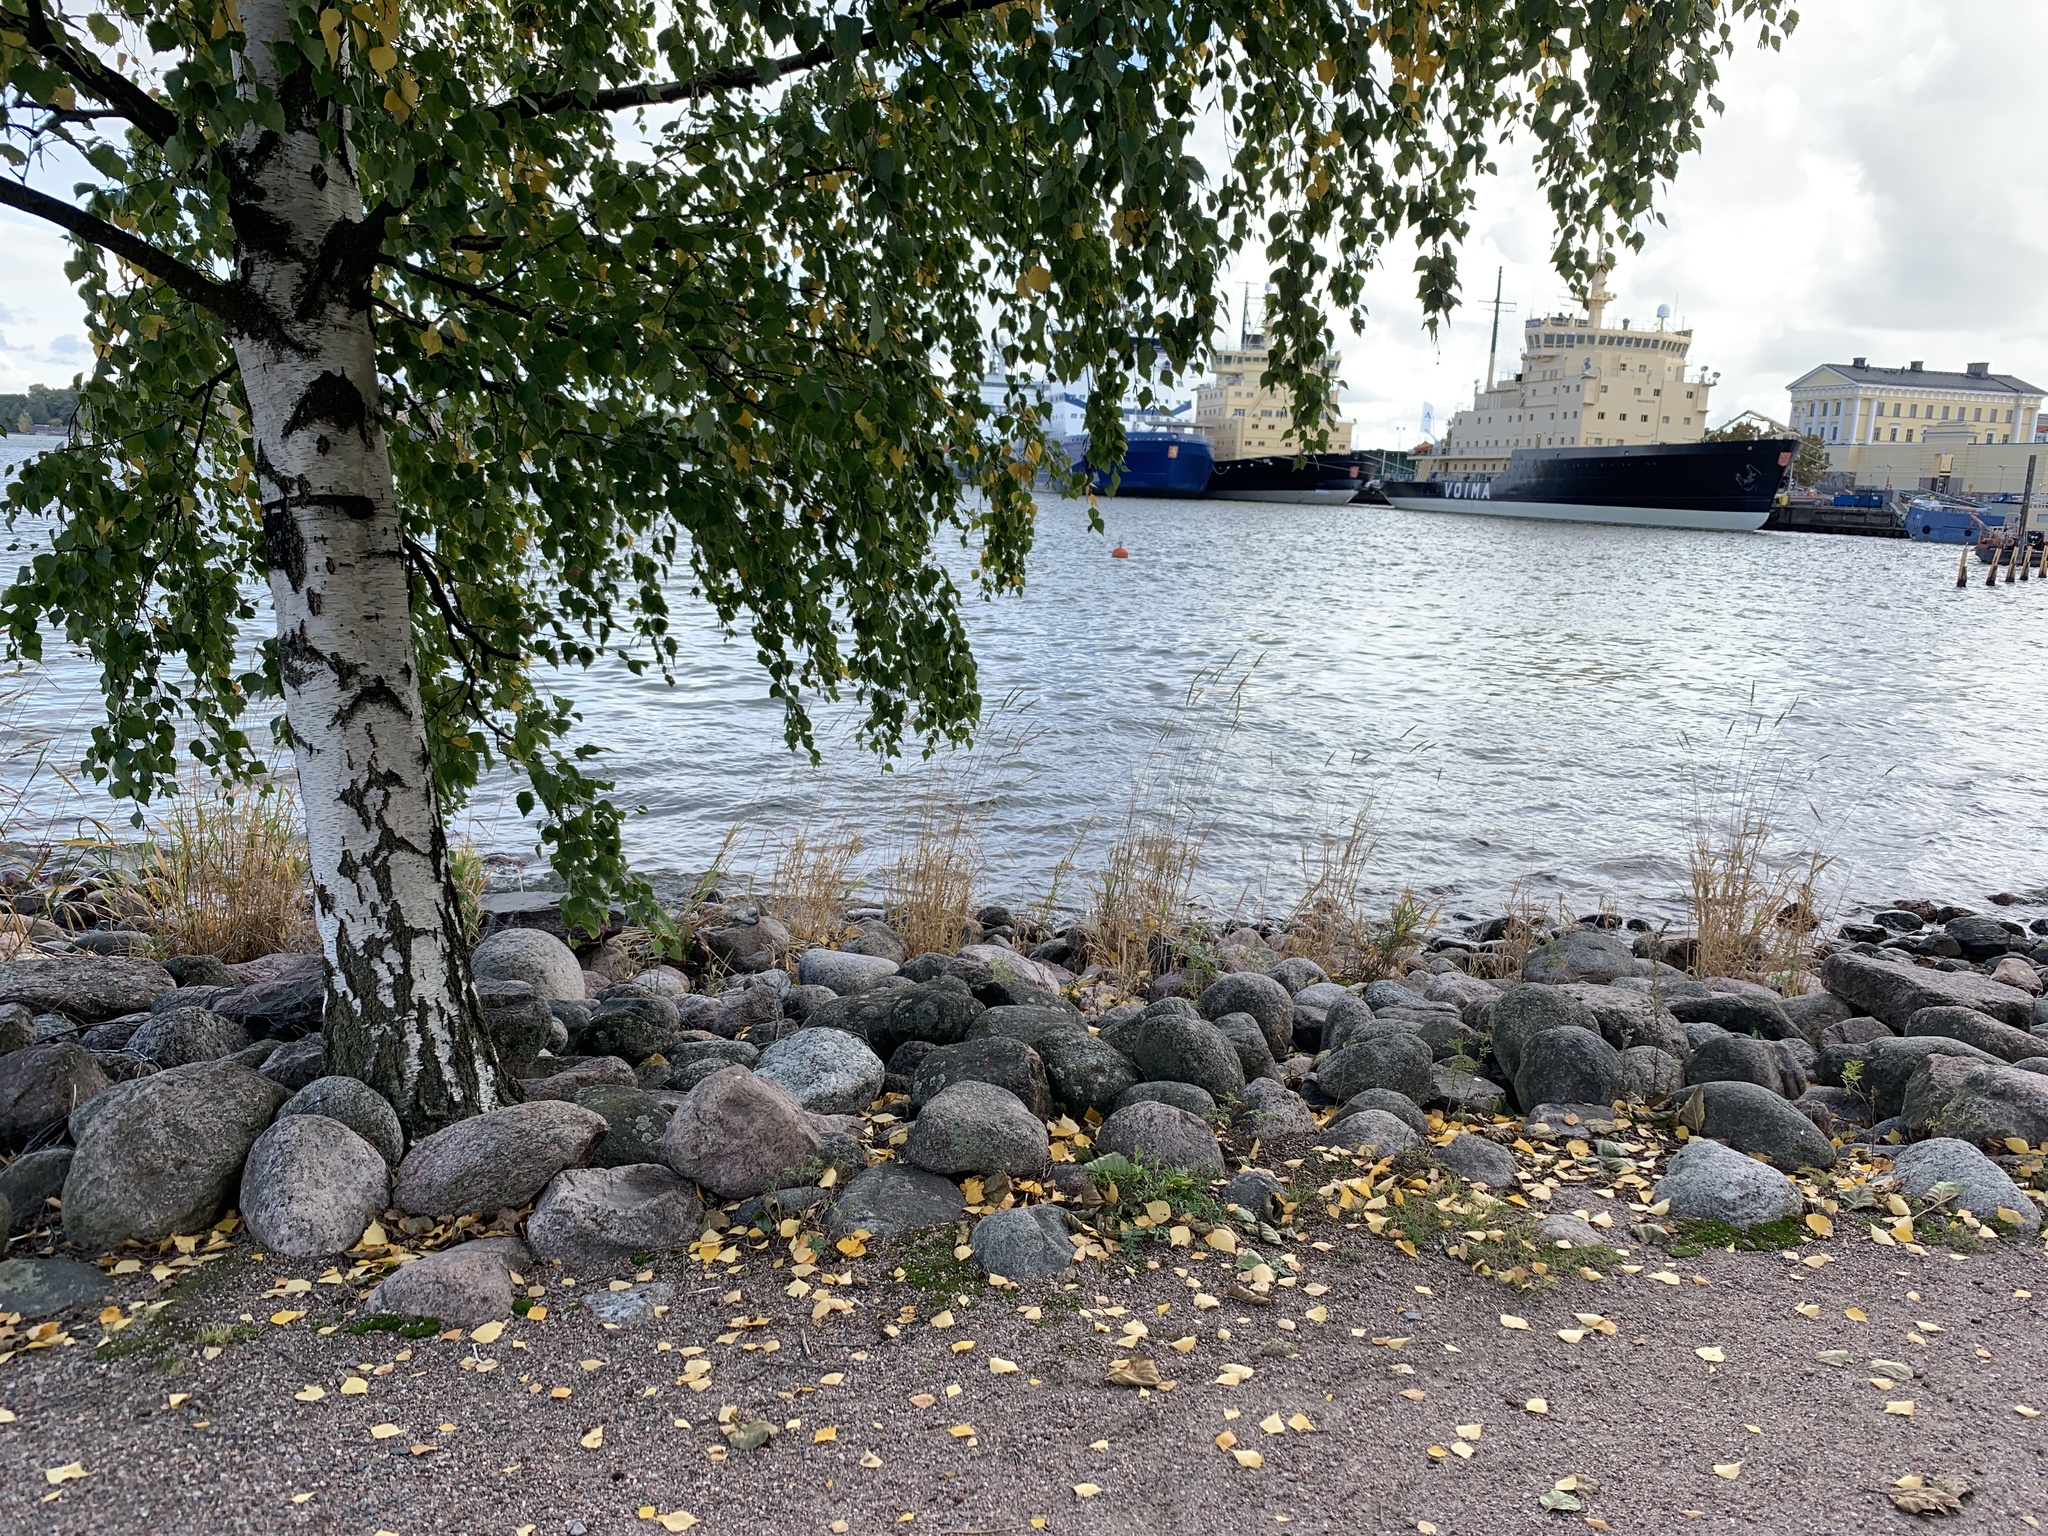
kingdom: Plantae
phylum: Tracheophyta
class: Magnoliopsida
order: Fagales
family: Betulaceae
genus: Betula
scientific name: Betula pendula
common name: Silver birch
